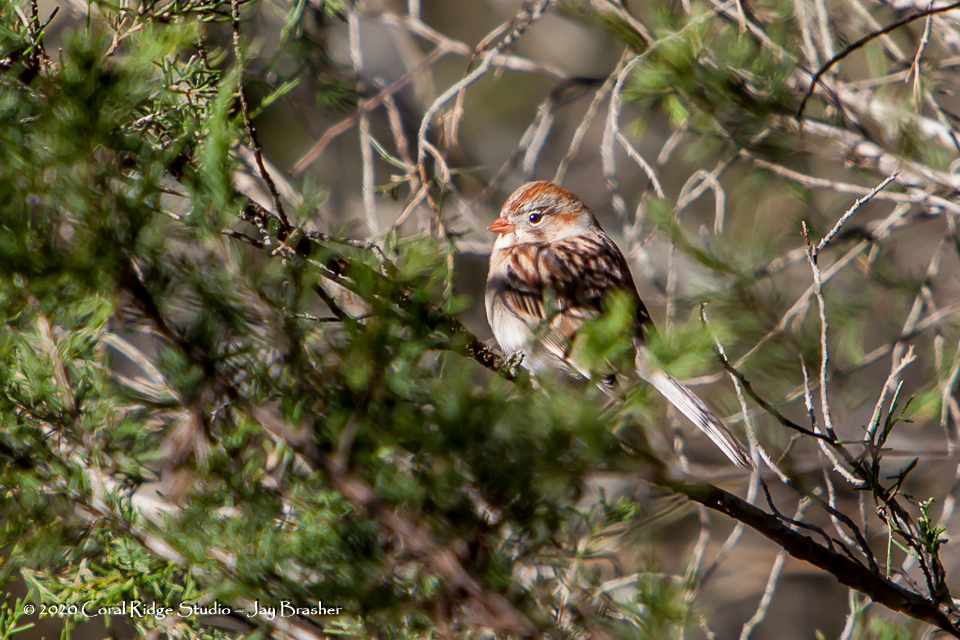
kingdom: Animalia
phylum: Chordata
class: Aves
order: Passeriformes
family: Passerellidae
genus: Spizella
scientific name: Spizella pusilla
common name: Field sparrow
